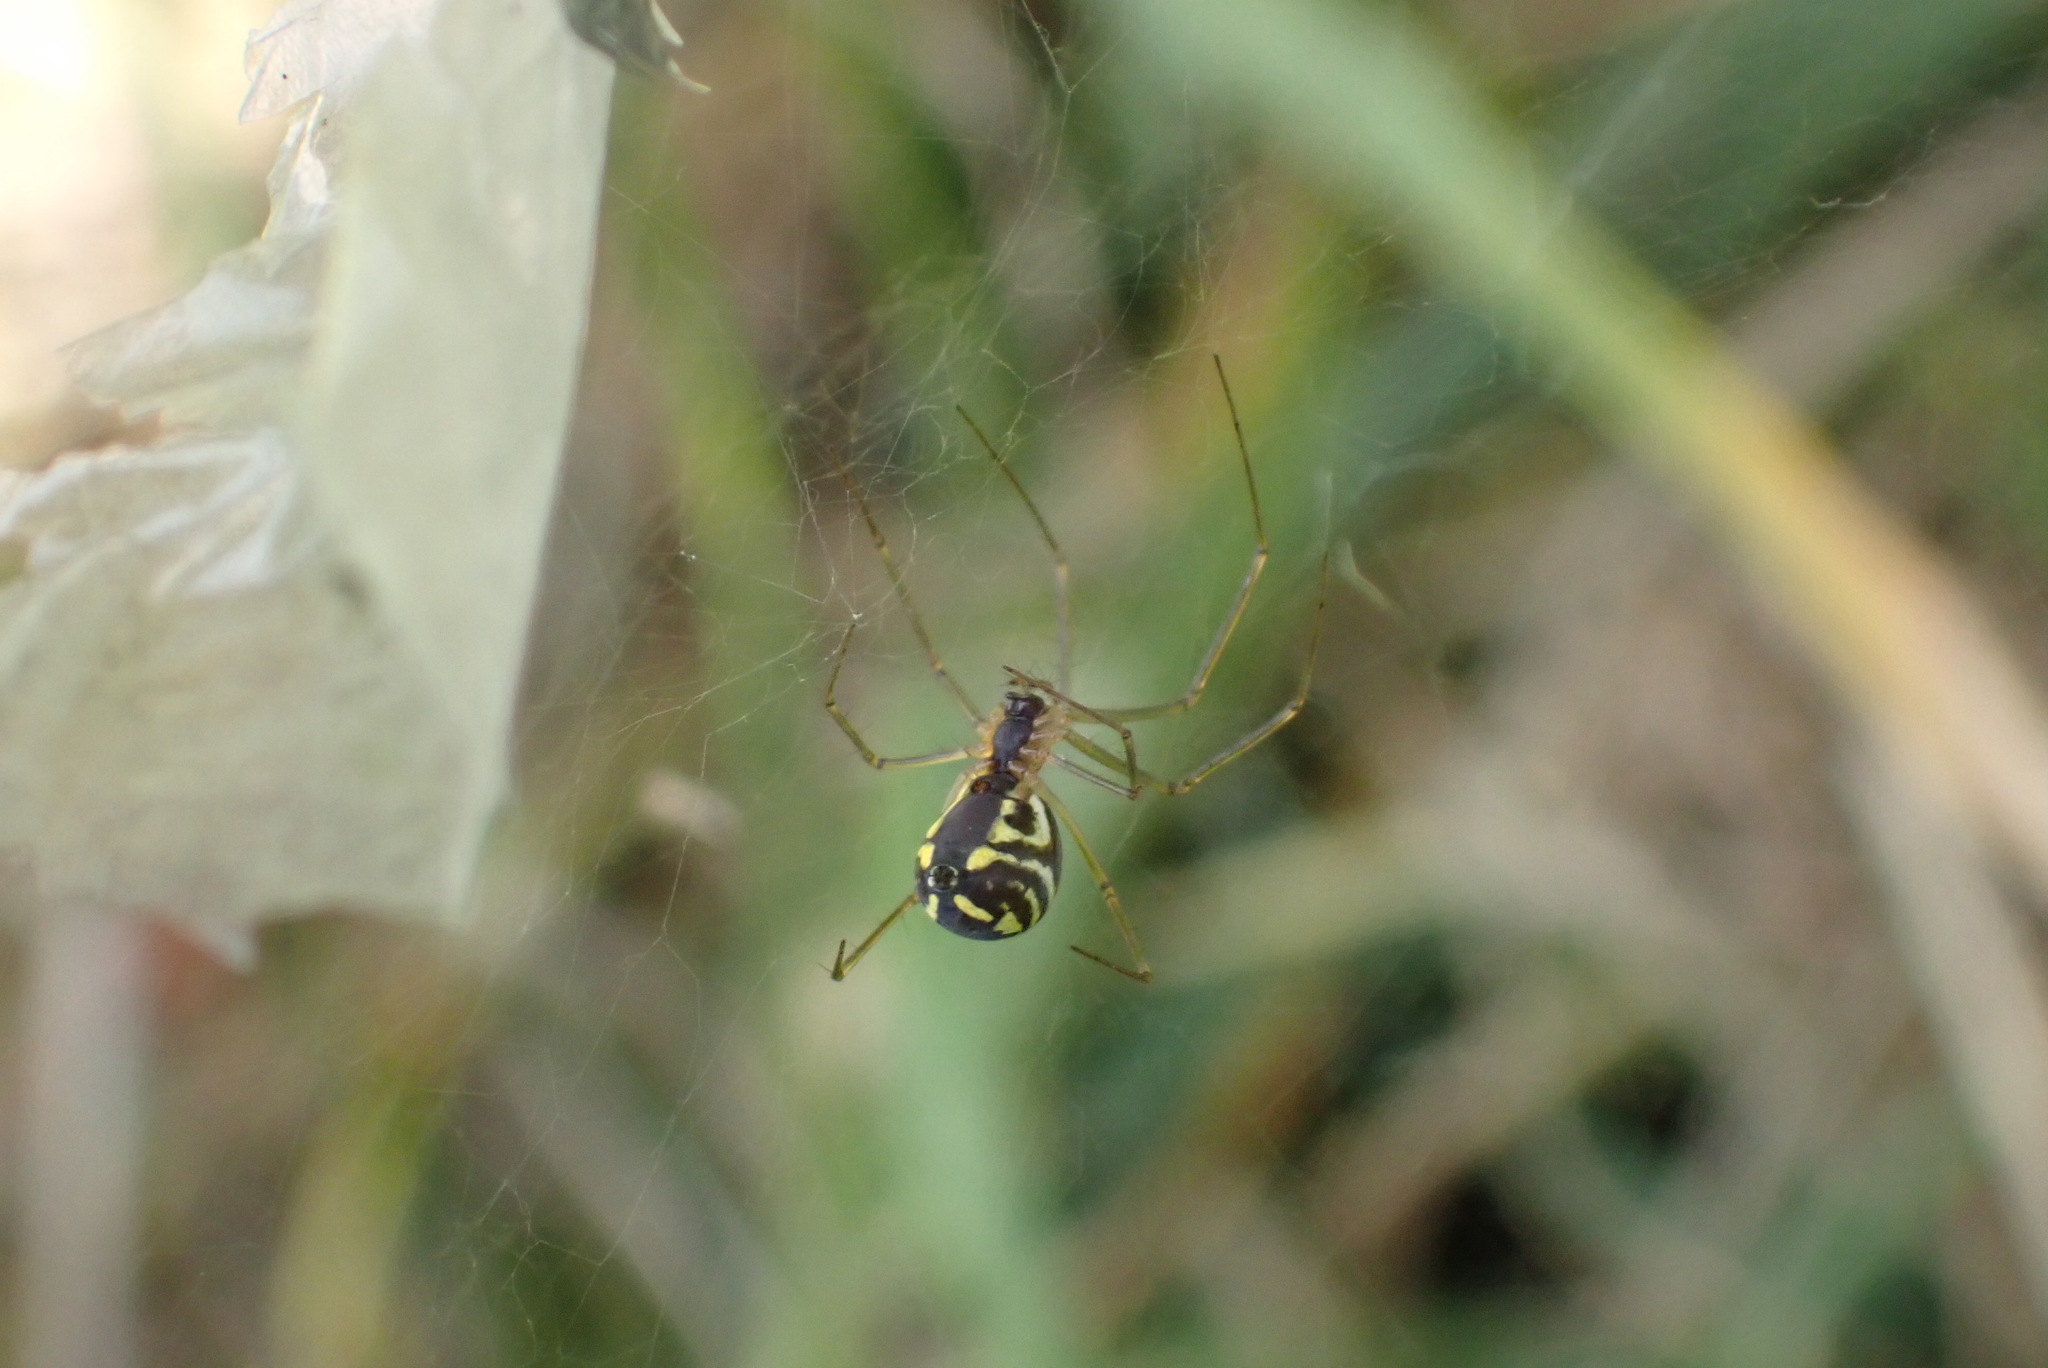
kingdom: Animalia
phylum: Arthropoda
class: Arachnida
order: Araneae
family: Linyphiidae
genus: Neriene
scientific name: Neriene radiata
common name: Filmy dome spider
